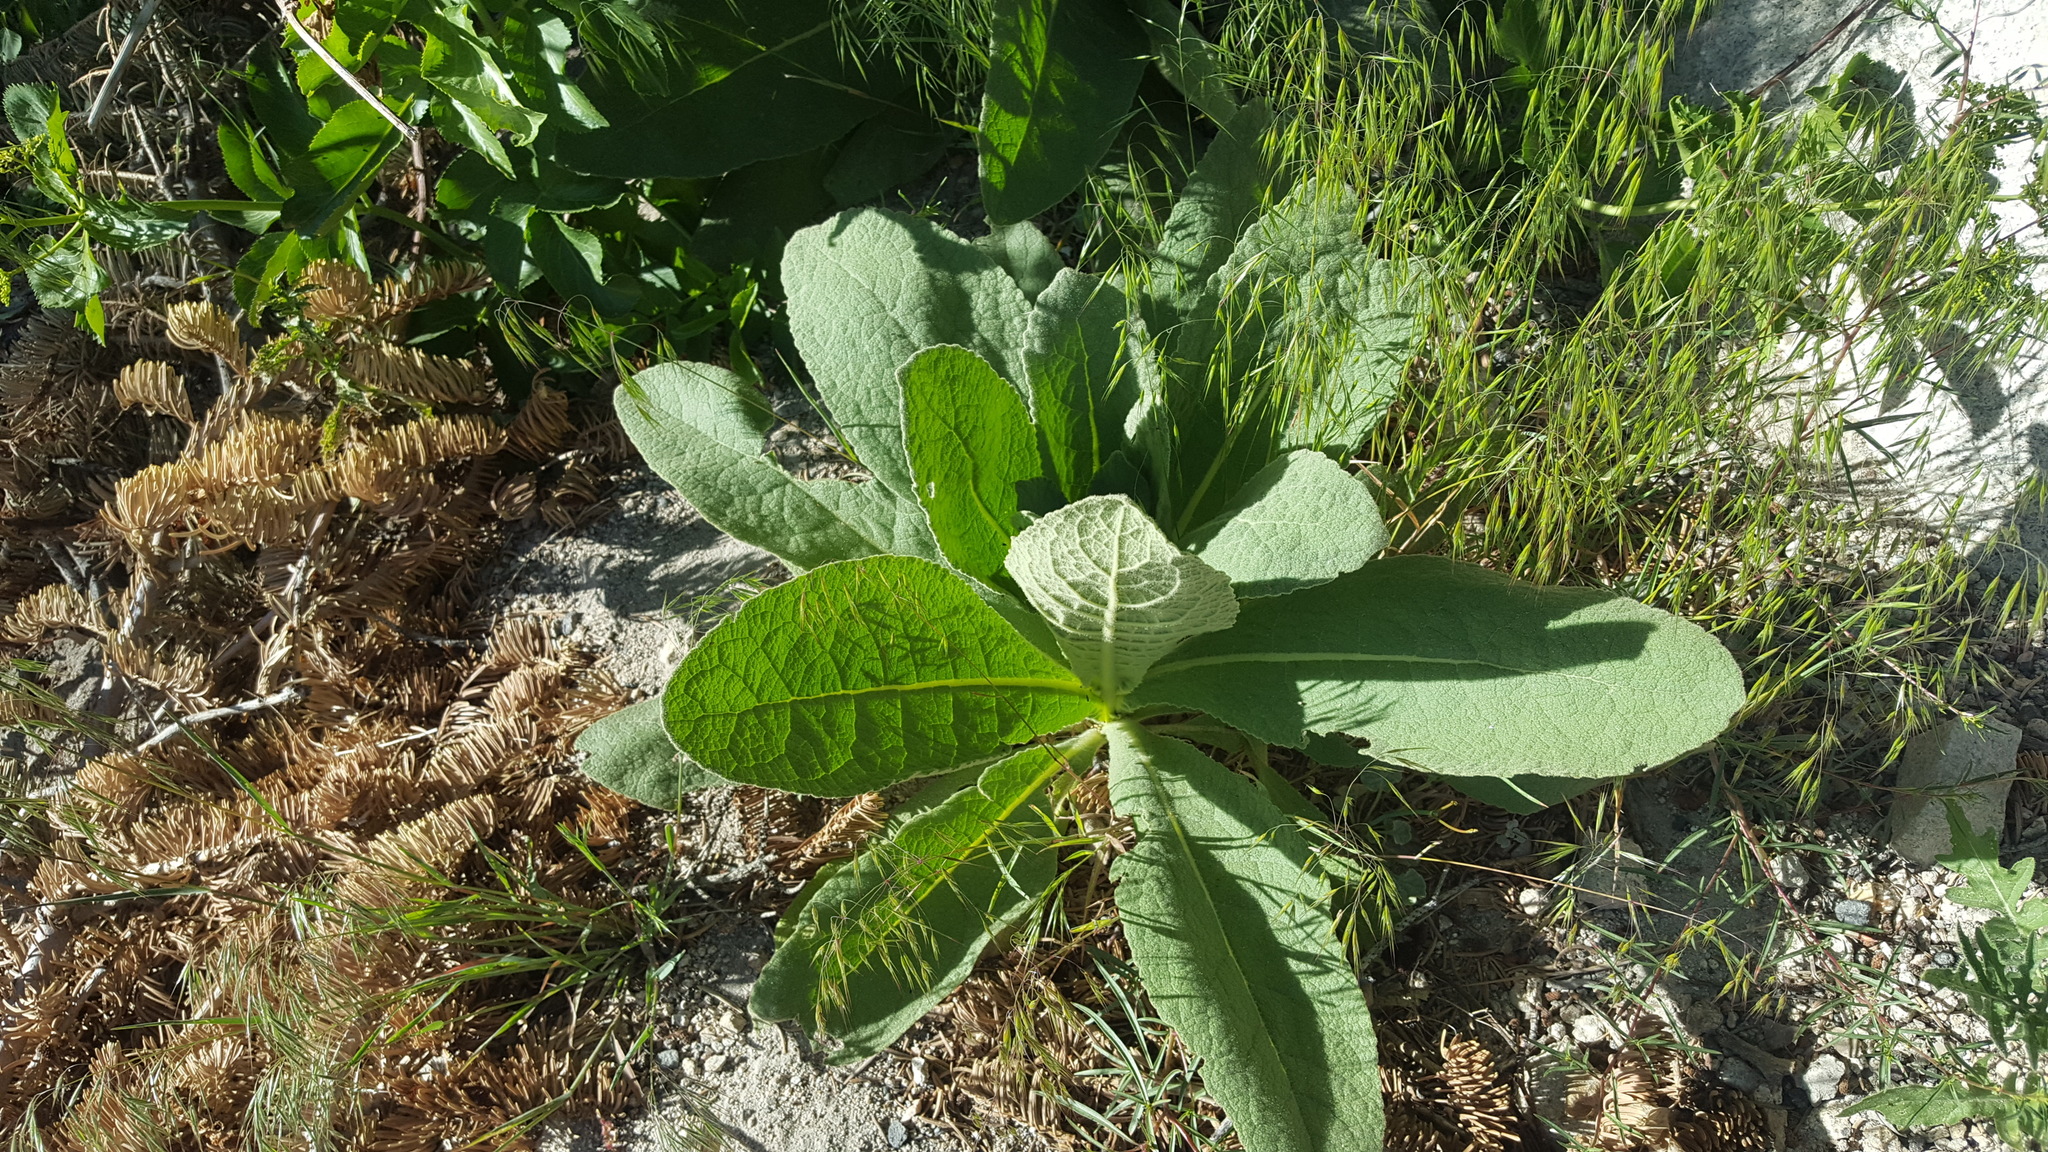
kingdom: Plantae
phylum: Tracheophyta
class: Magnoliopsida
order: Lamiales
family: Scrophulariaceae
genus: Verbascum
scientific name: Verbascum thapsus
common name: Common mullein
